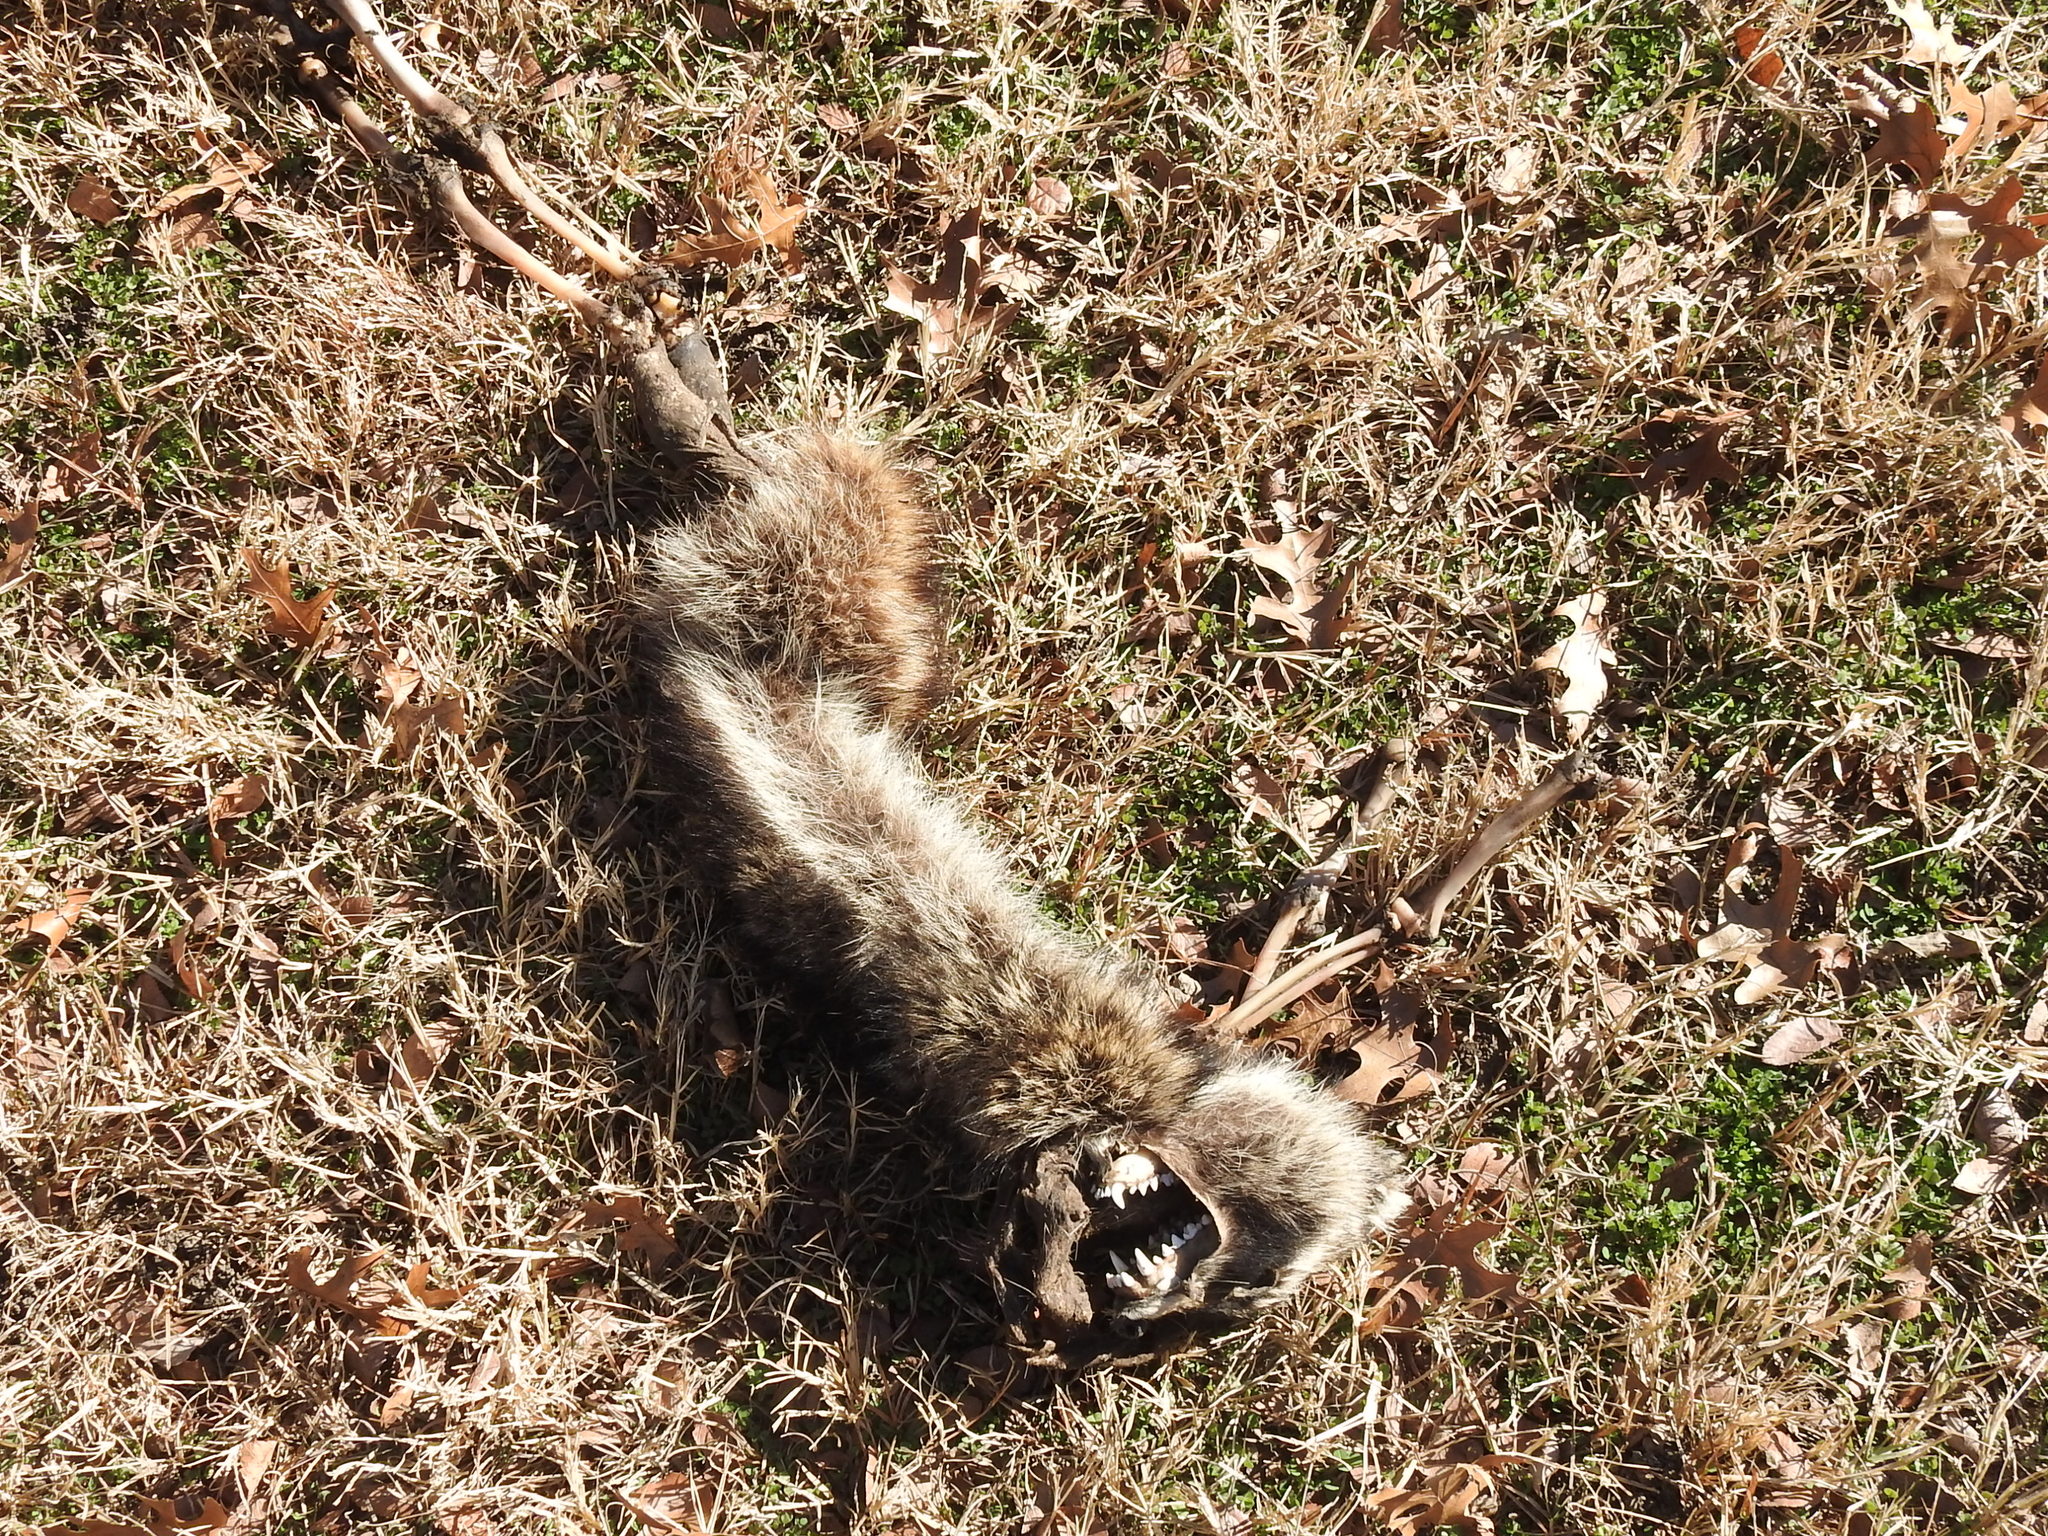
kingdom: Animalia
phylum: Chordata
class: Mammalia
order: Carnivora
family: Procyonidae
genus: Procyon
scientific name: Procyon lotor
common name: Raccoon
